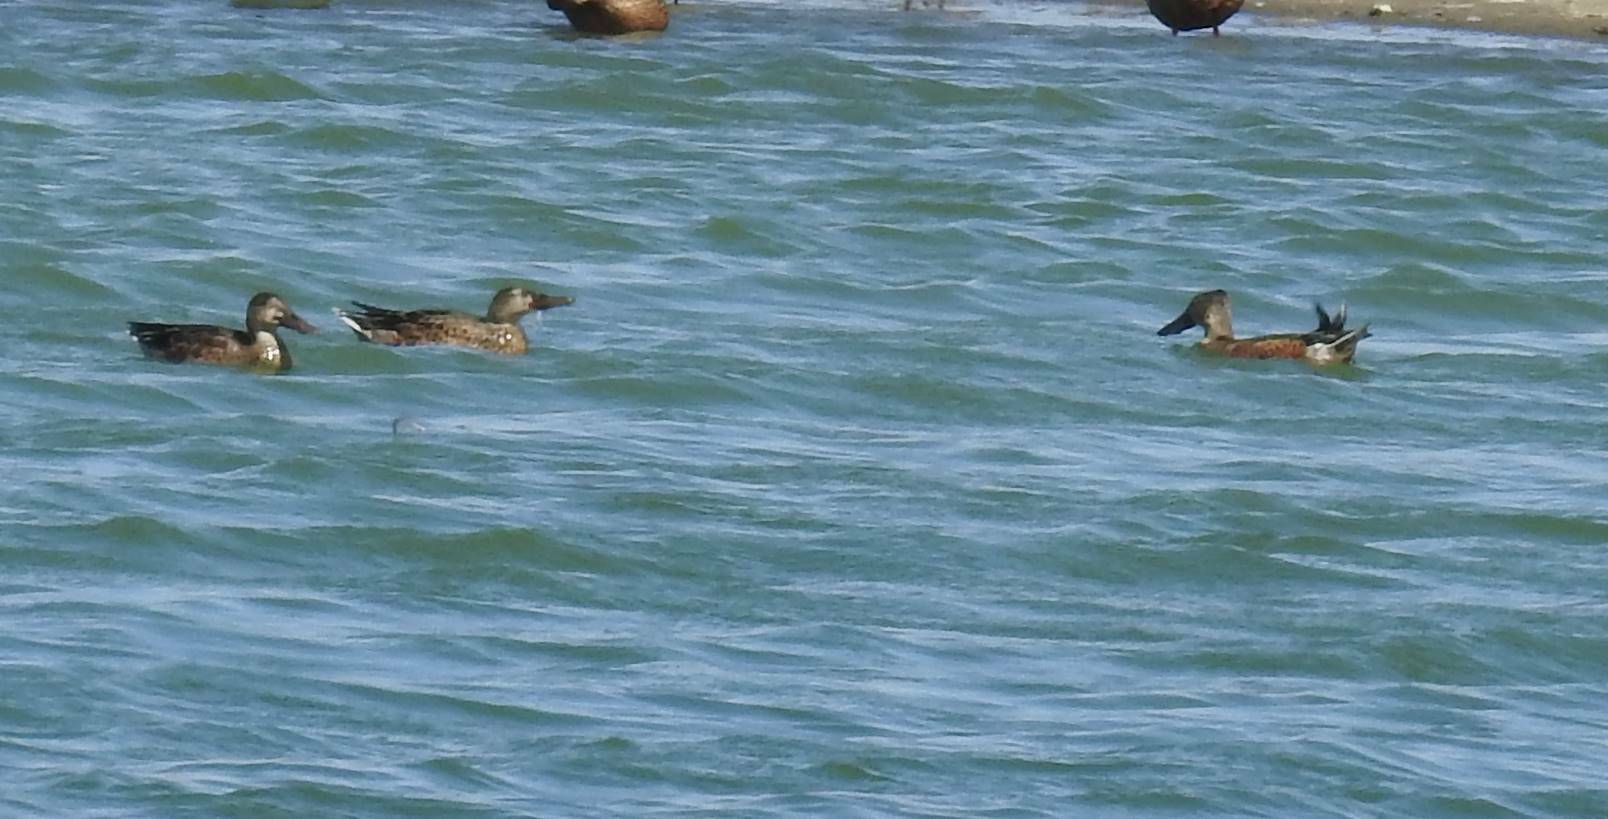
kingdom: Animalia
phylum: Chordata
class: Aves
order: Anseriformes
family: Anatidae
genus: Spatula
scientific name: Spatula clypeata
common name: Northern shoveler
